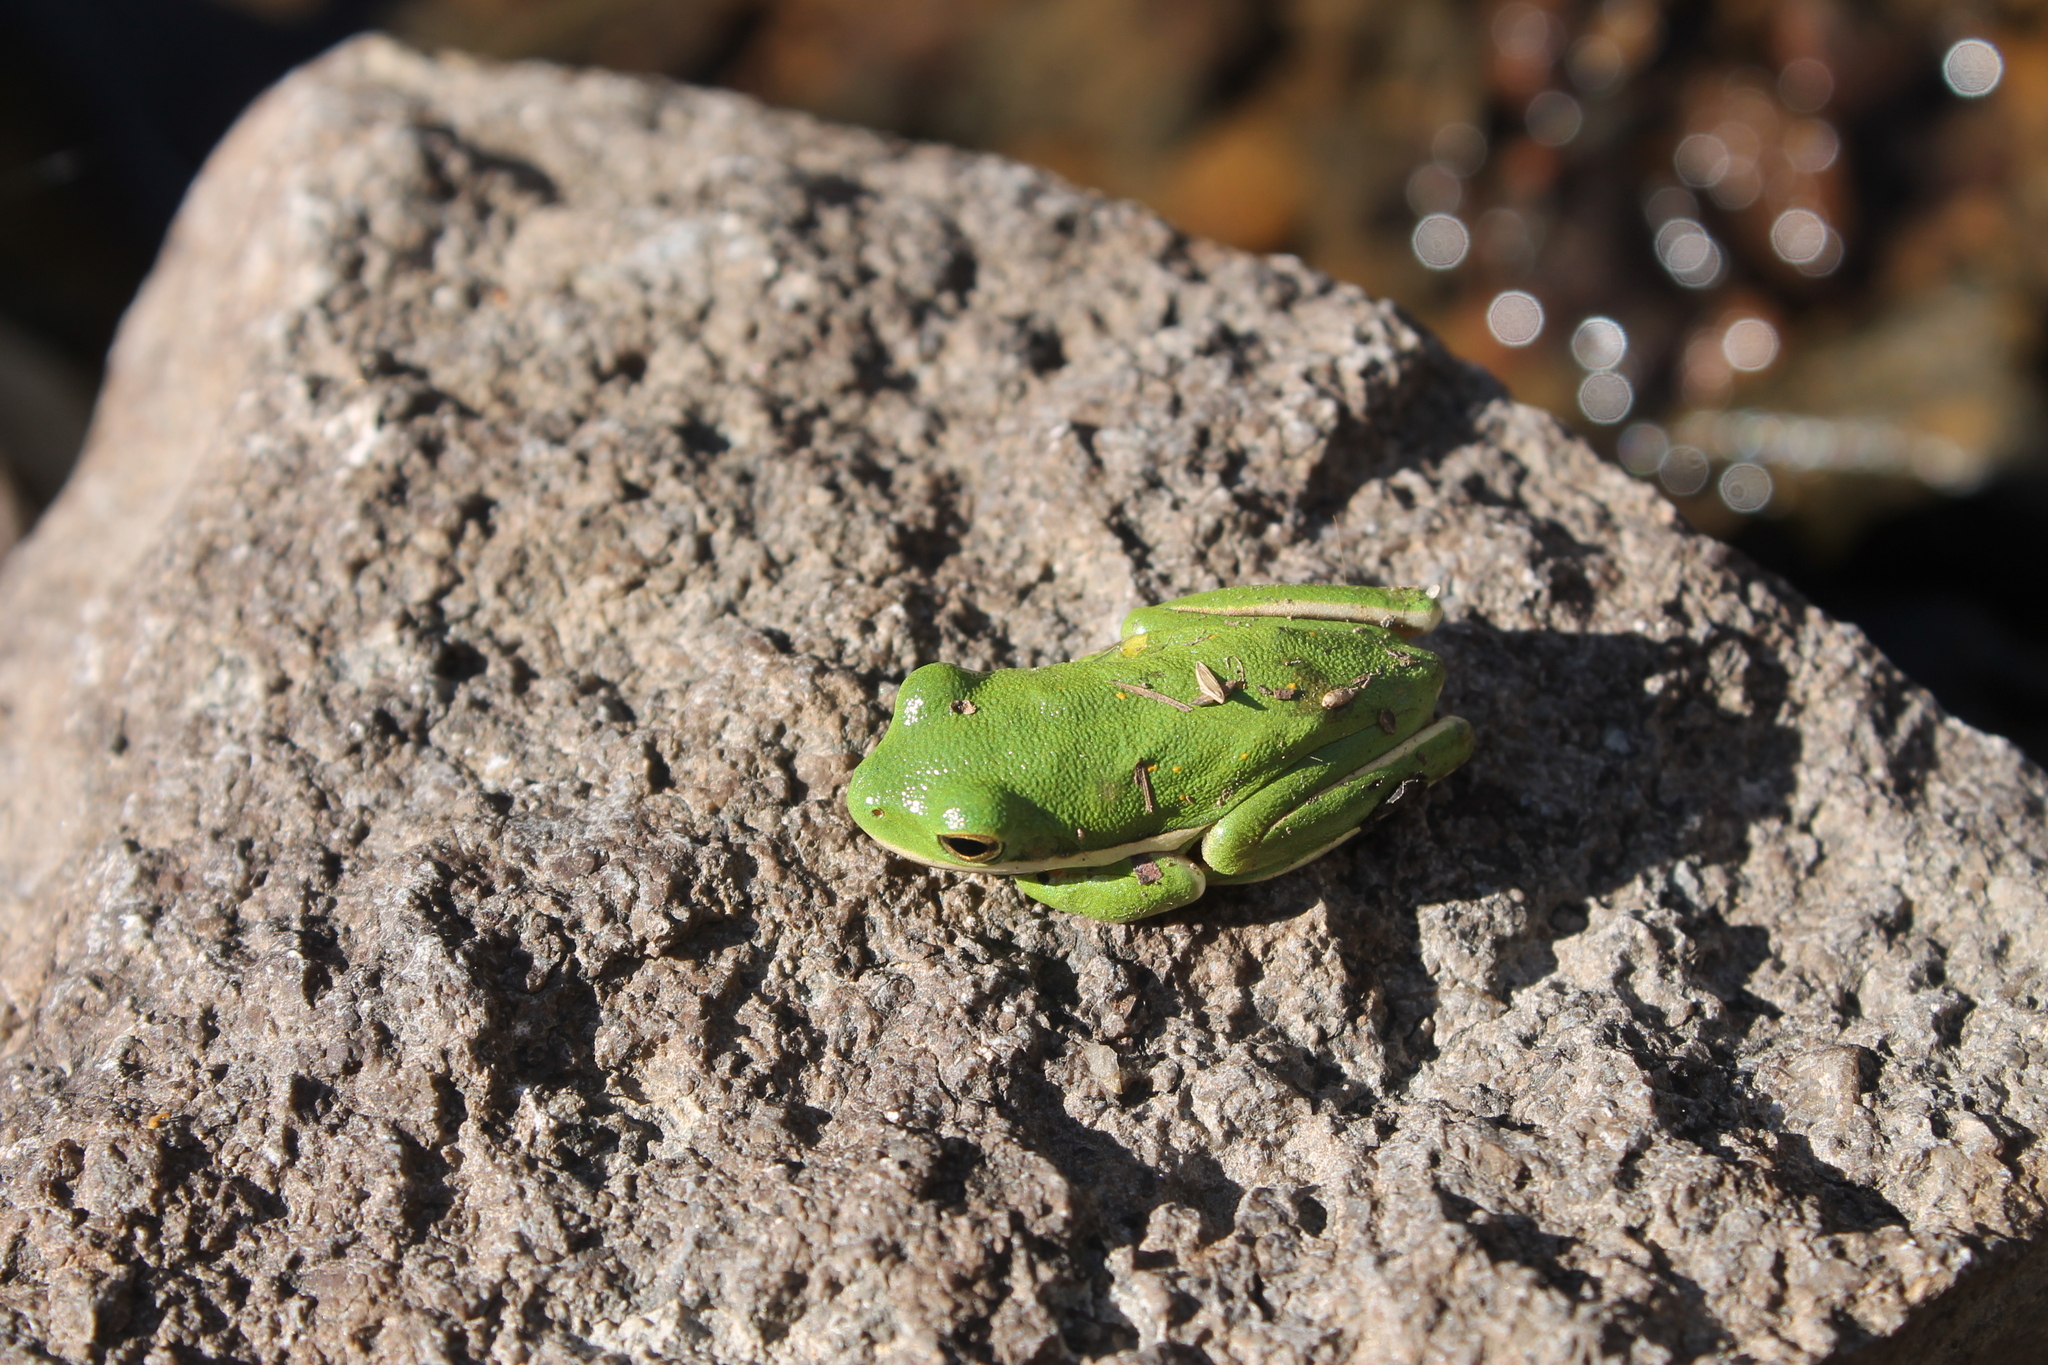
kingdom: Animalia
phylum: Chordata
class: Amphibia
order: Anura
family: Hylidae
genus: Dryophytes
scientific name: Dryophytes cinereus
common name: Green treefrog
